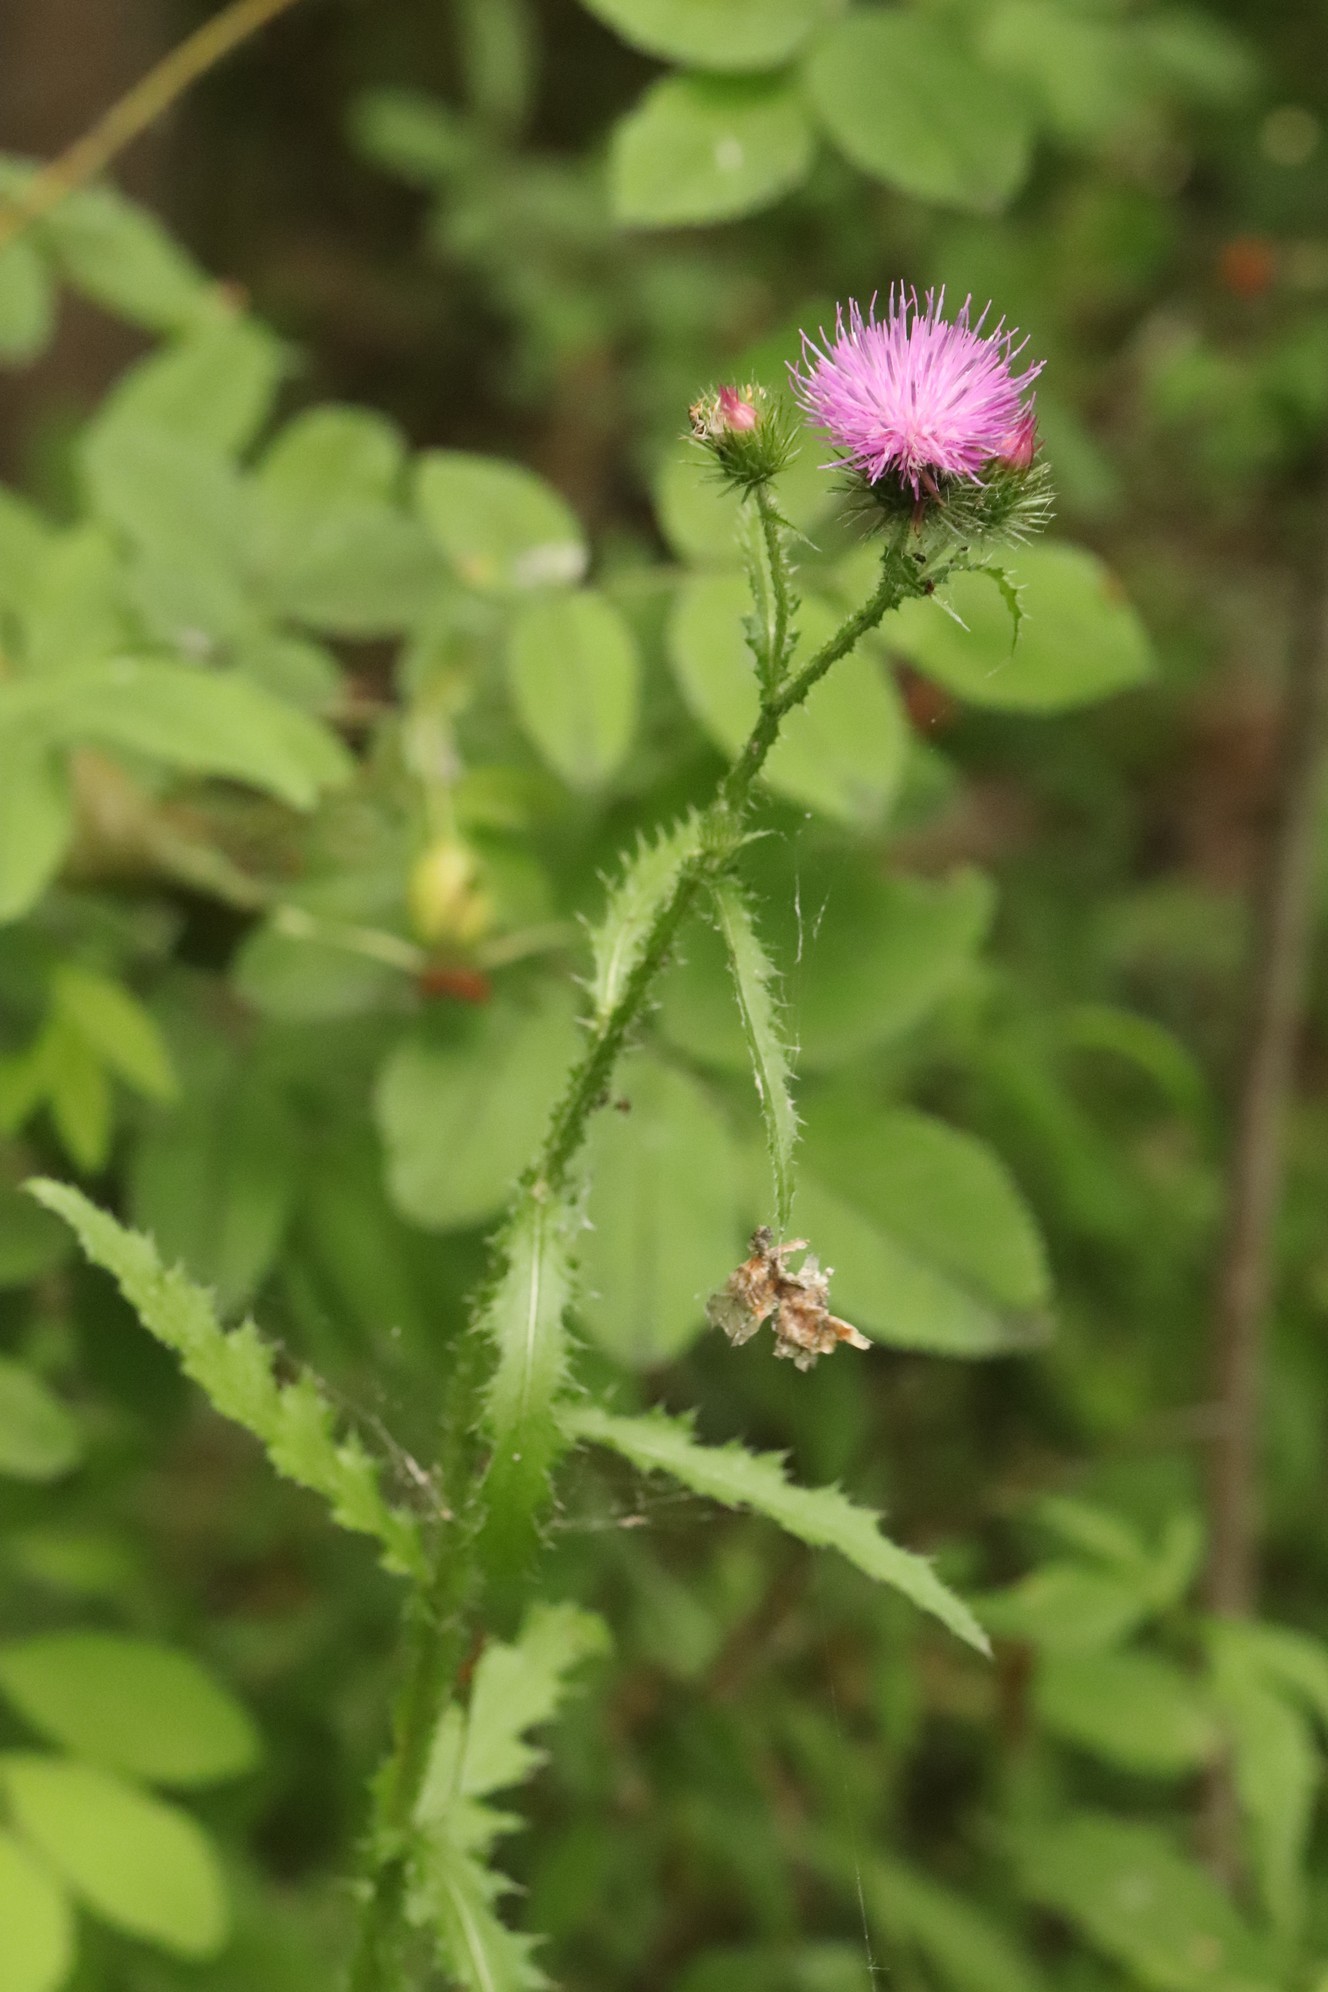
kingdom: Plantae
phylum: Tracheophyta
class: Magnoliopsida
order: Asterales
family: Asteraceae
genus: Carduus
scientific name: Carduus crispus
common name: Welted thistle
